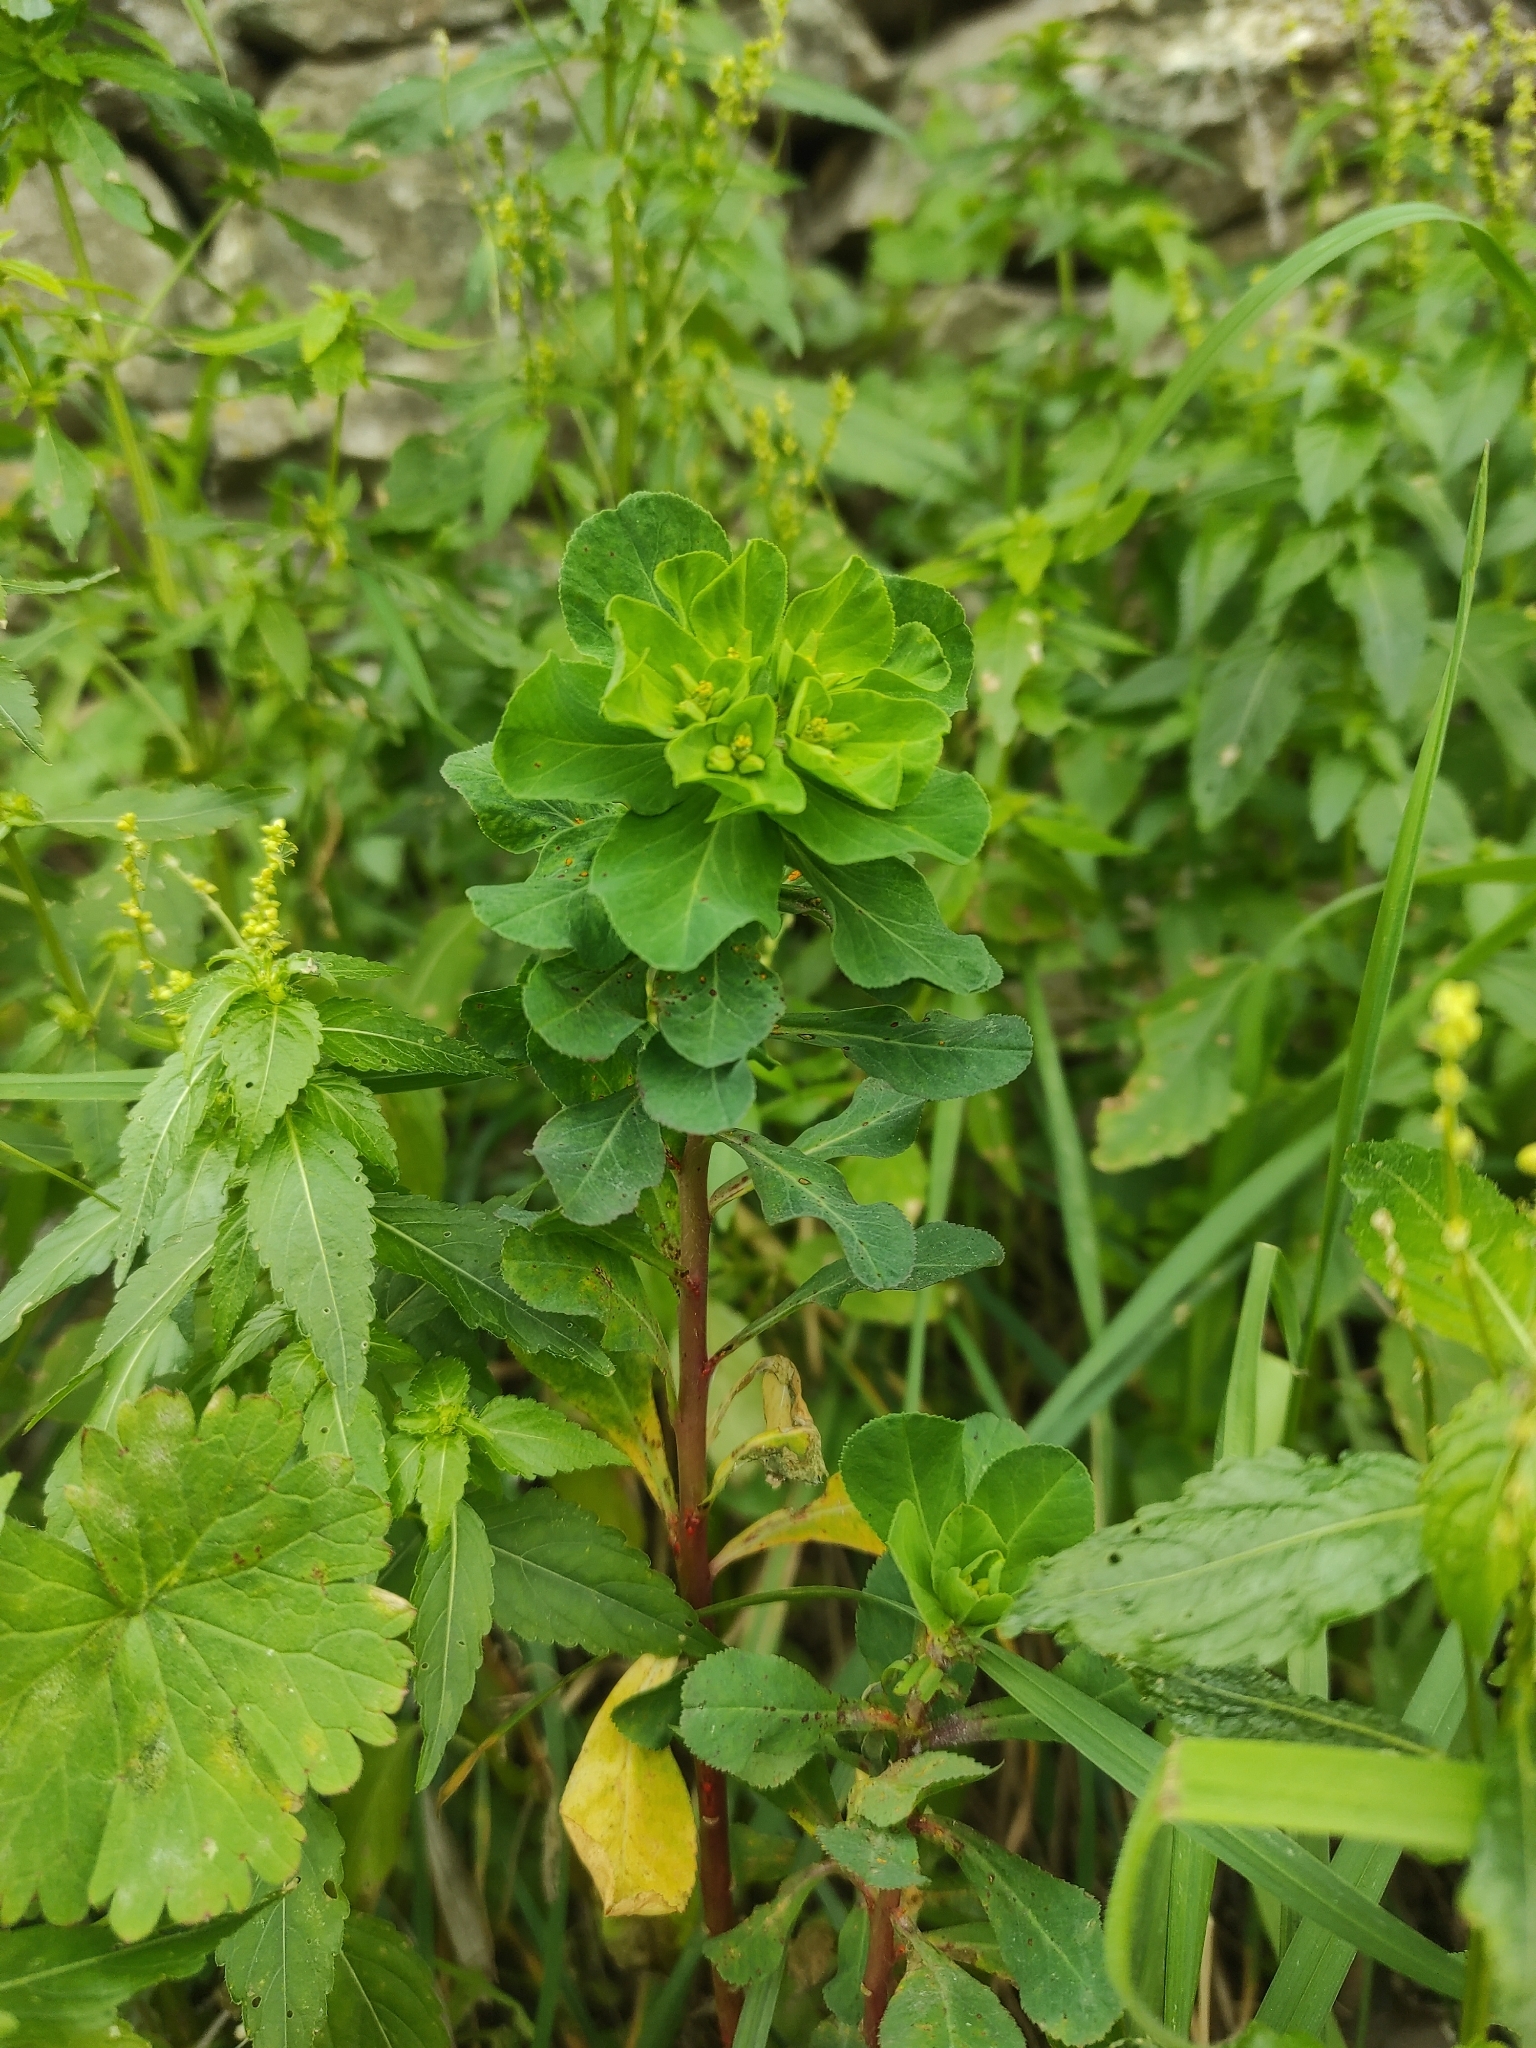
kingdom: Plantae
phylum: Tracheophyta
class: Magnoliopsida
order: Malpighiales
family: Euphorbiaceae
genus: Euphorbia
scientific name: Euphorbia helioscopia
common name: Sun spurge
